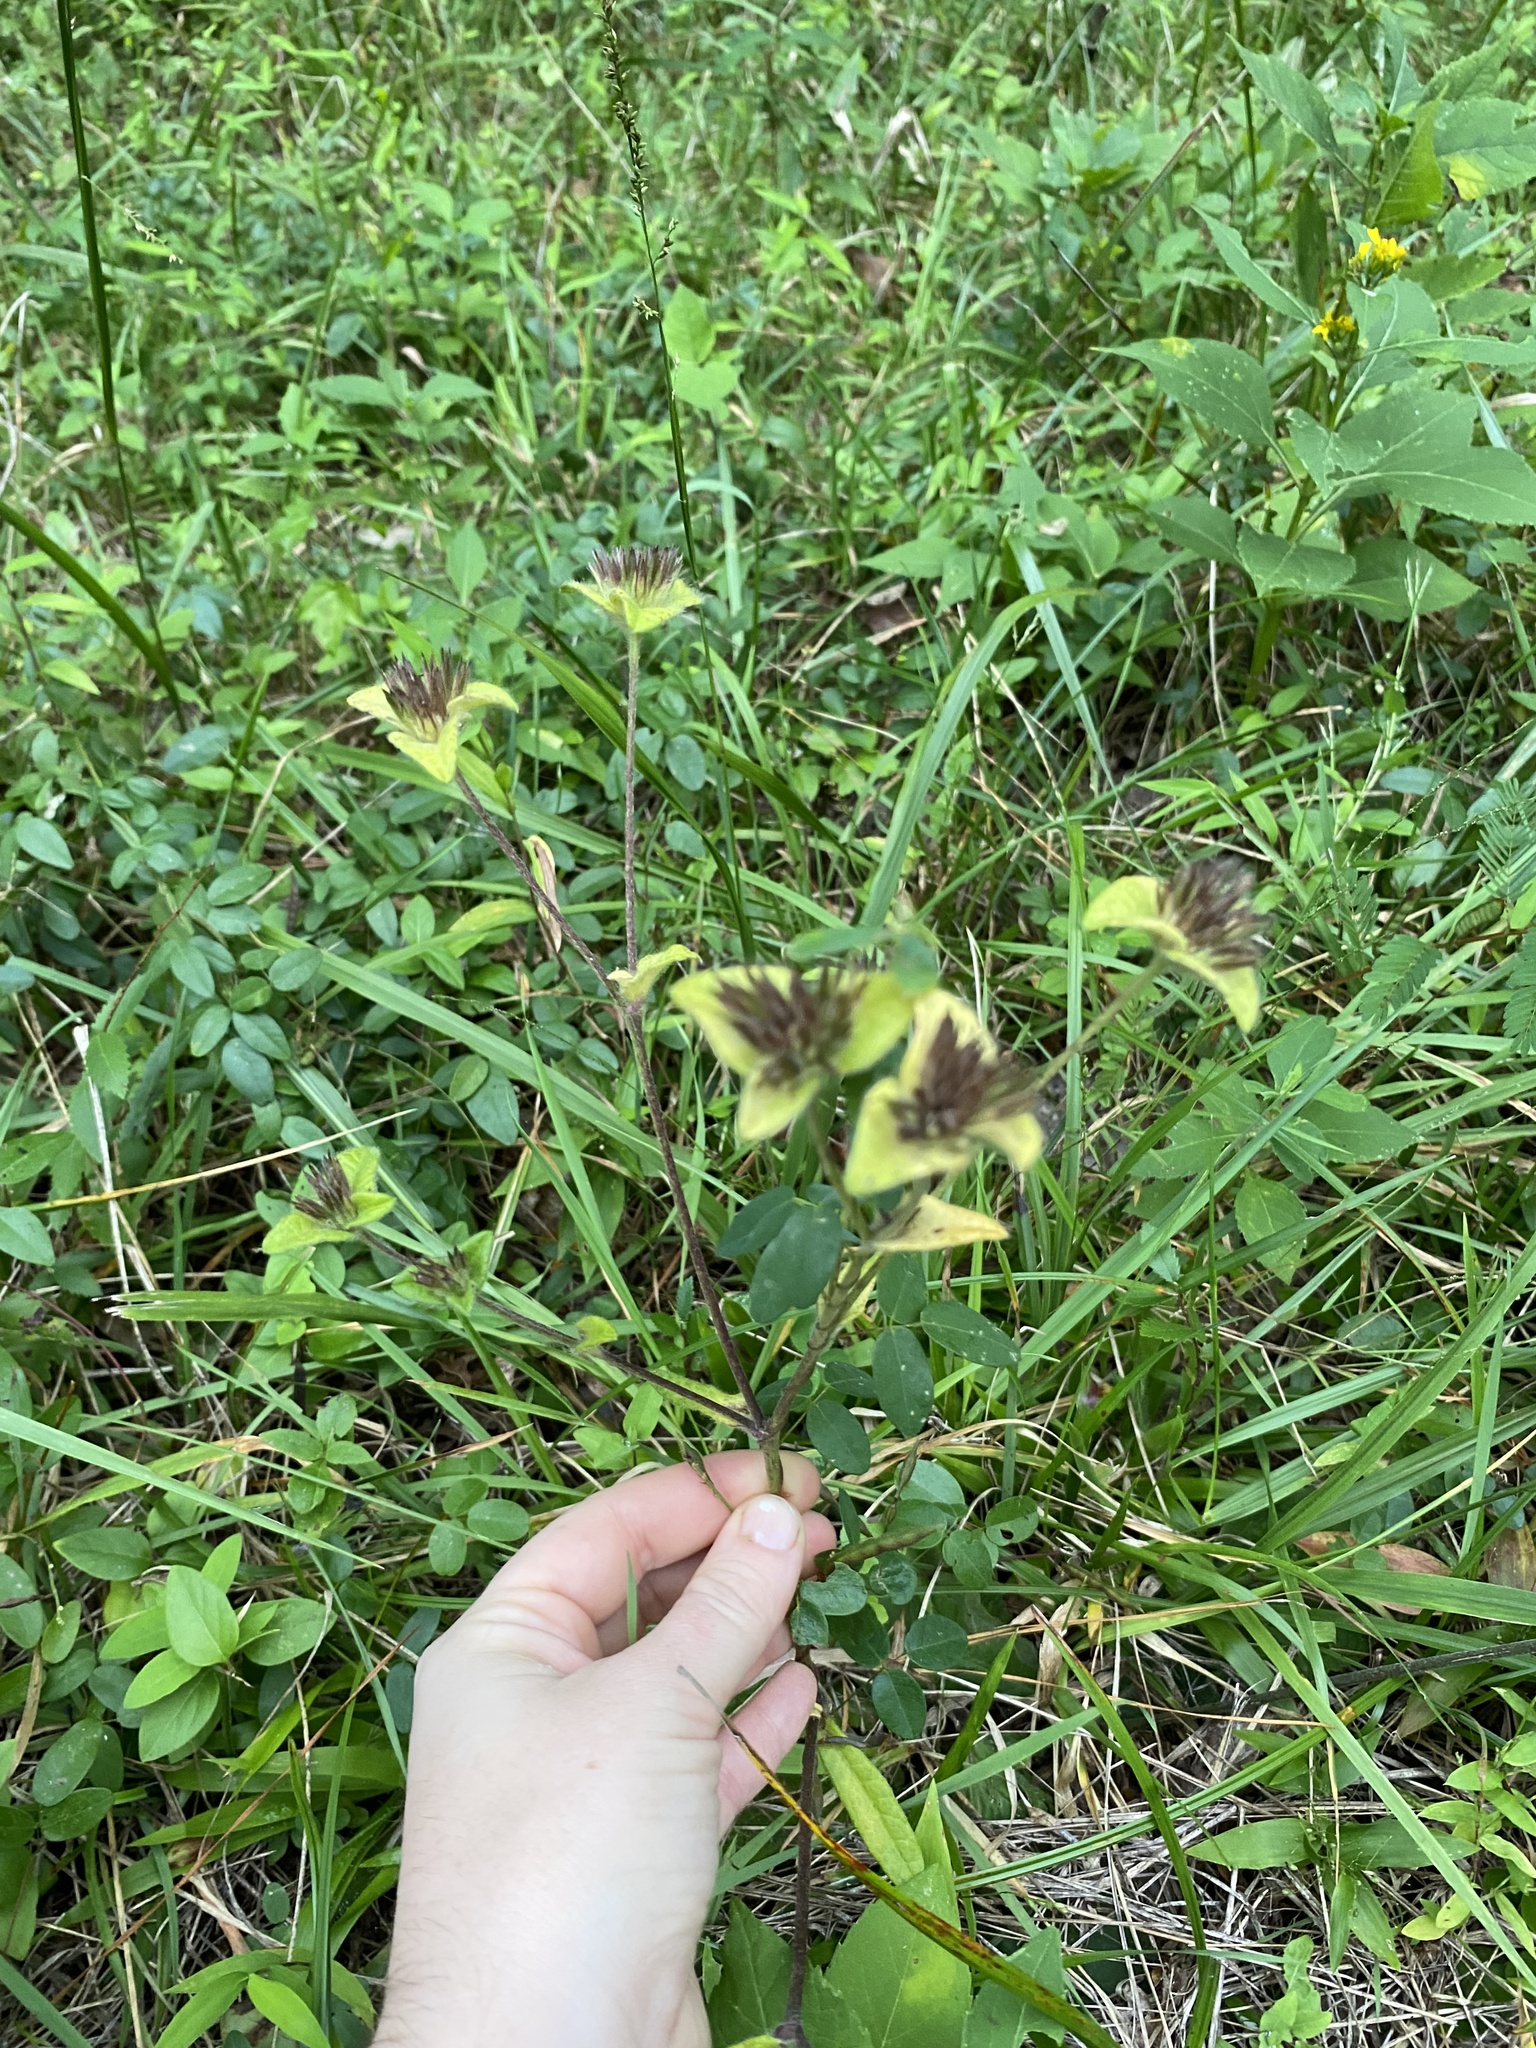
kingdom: Plantae
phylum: Tracheophyta
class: Magnoliopsida
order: Asterales
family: Asteraceae
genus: Elephantopus
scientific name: Elephantopus tomentosus
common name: Tobacco-weed
